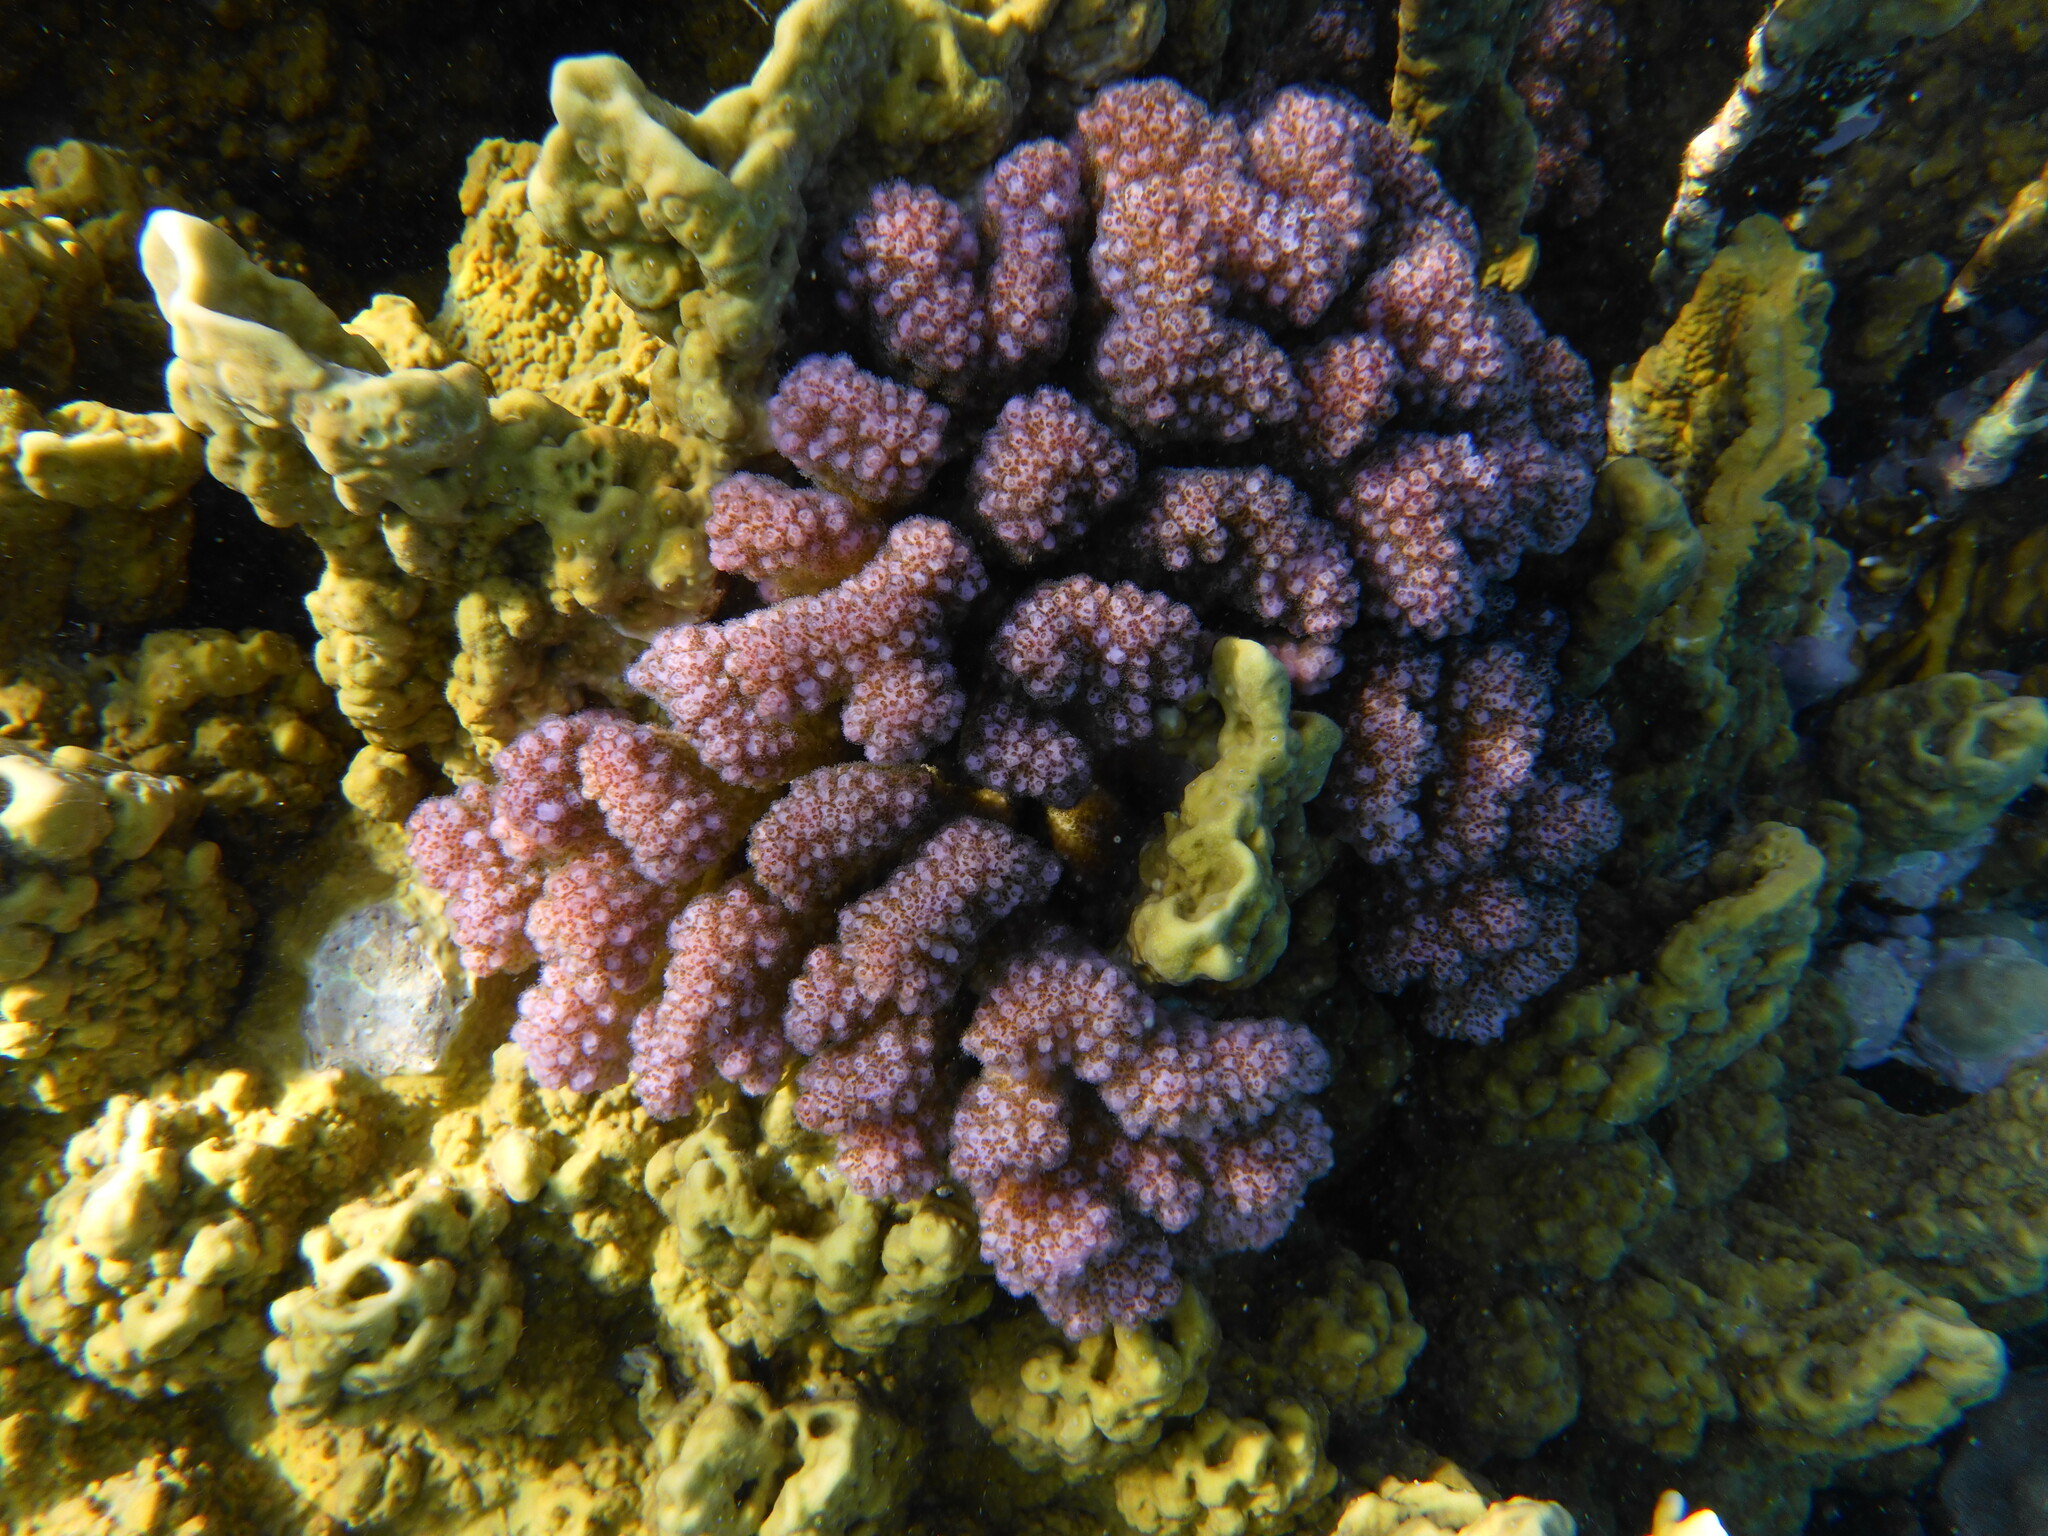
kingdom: Animalia
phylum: Cnidaria
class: Anthozoa
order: Scleractinia
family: Pocilloporidae
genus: Pocillopora
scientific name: Pocillopora verrucosa
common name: Cauliflower coral
